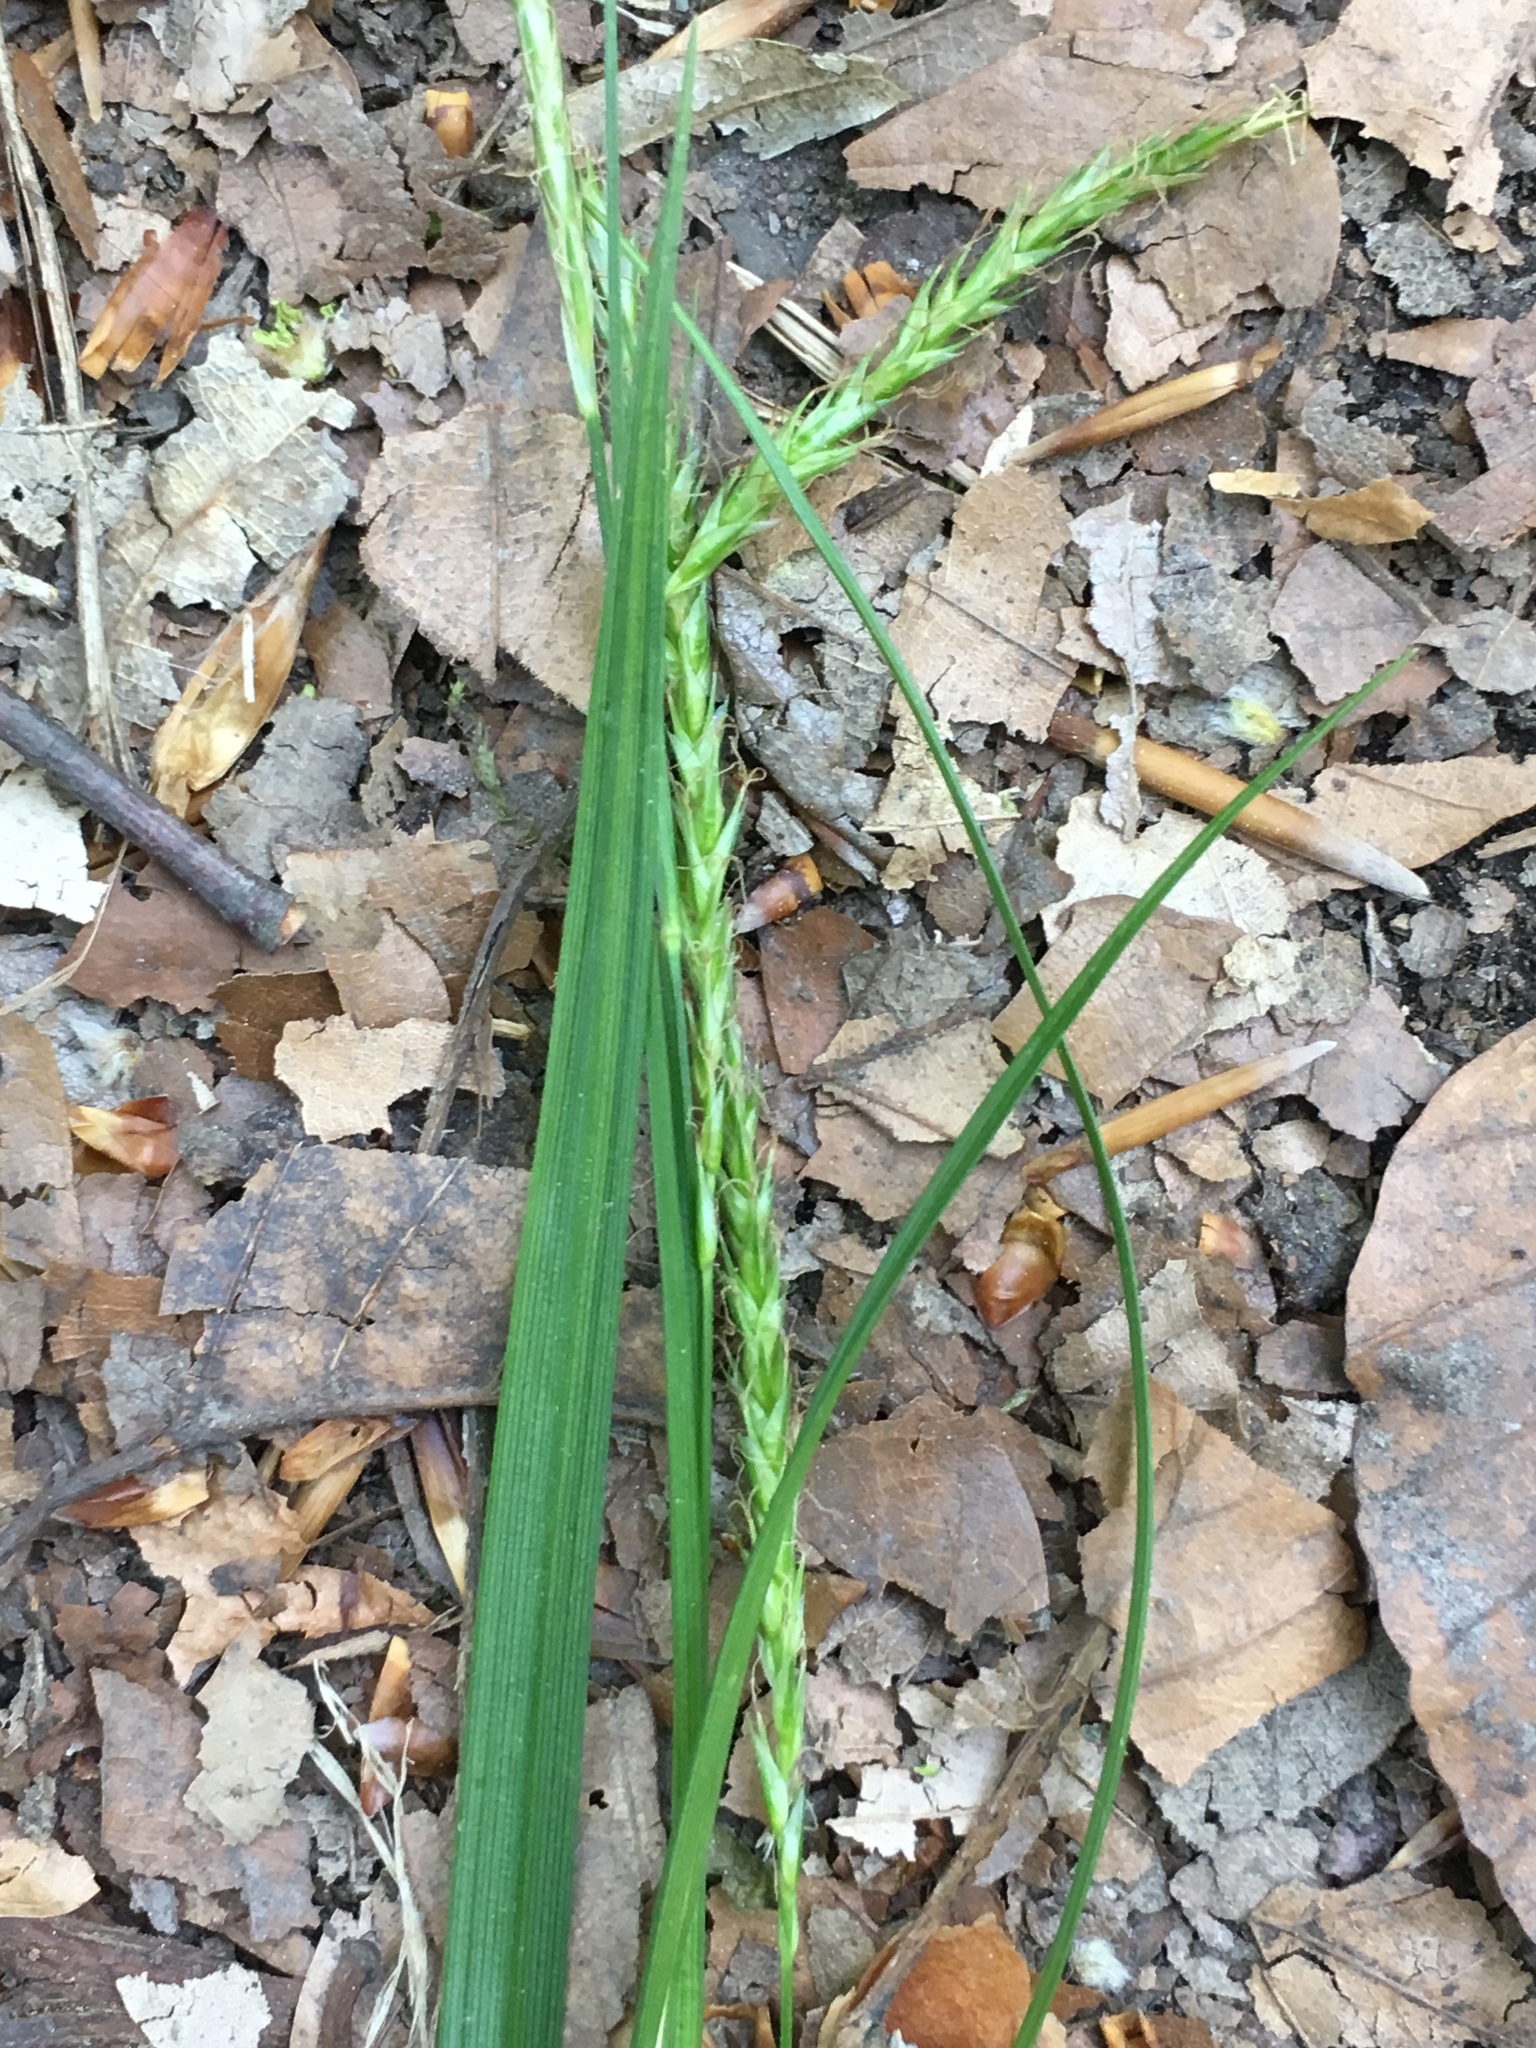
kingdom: Plantae
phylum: Tracheophyta
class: Liliopsida
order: Poales
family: Cyperaceae
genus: Carex
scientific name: Carex sylvatica
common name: Wood-sedge
